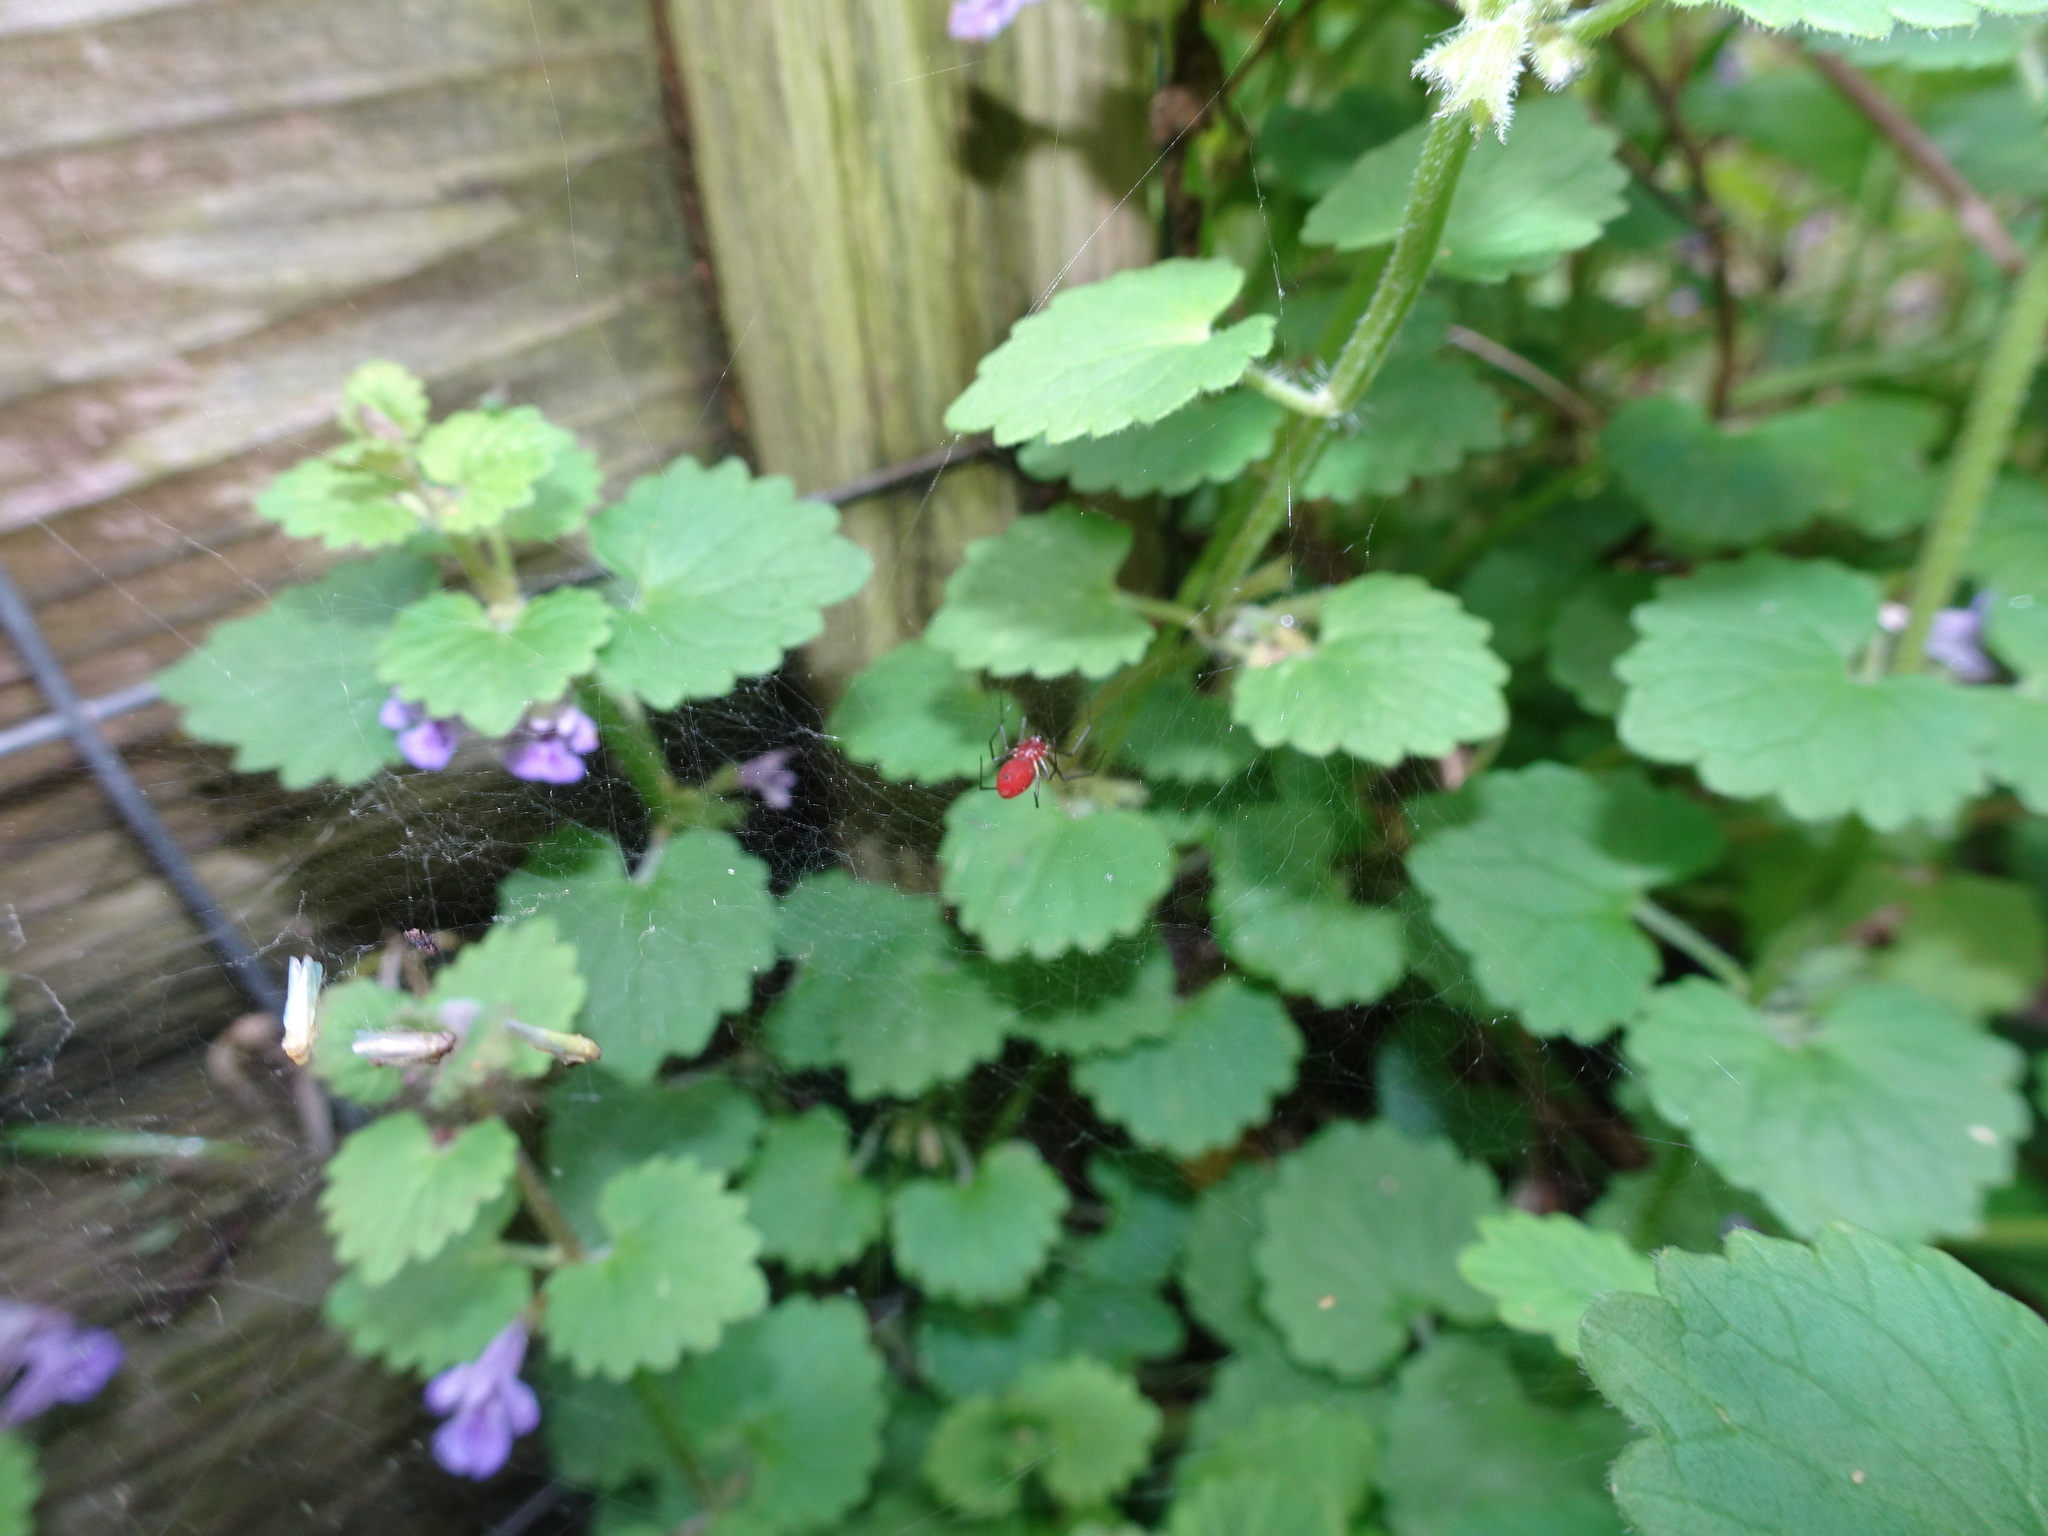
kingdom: Animalia
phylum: Arthropoda
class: Arachnida
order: Araneae
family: Linyphiidae
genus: Florinda
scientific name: Florinda coccinea
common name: Black-tailed red sheetweaver
